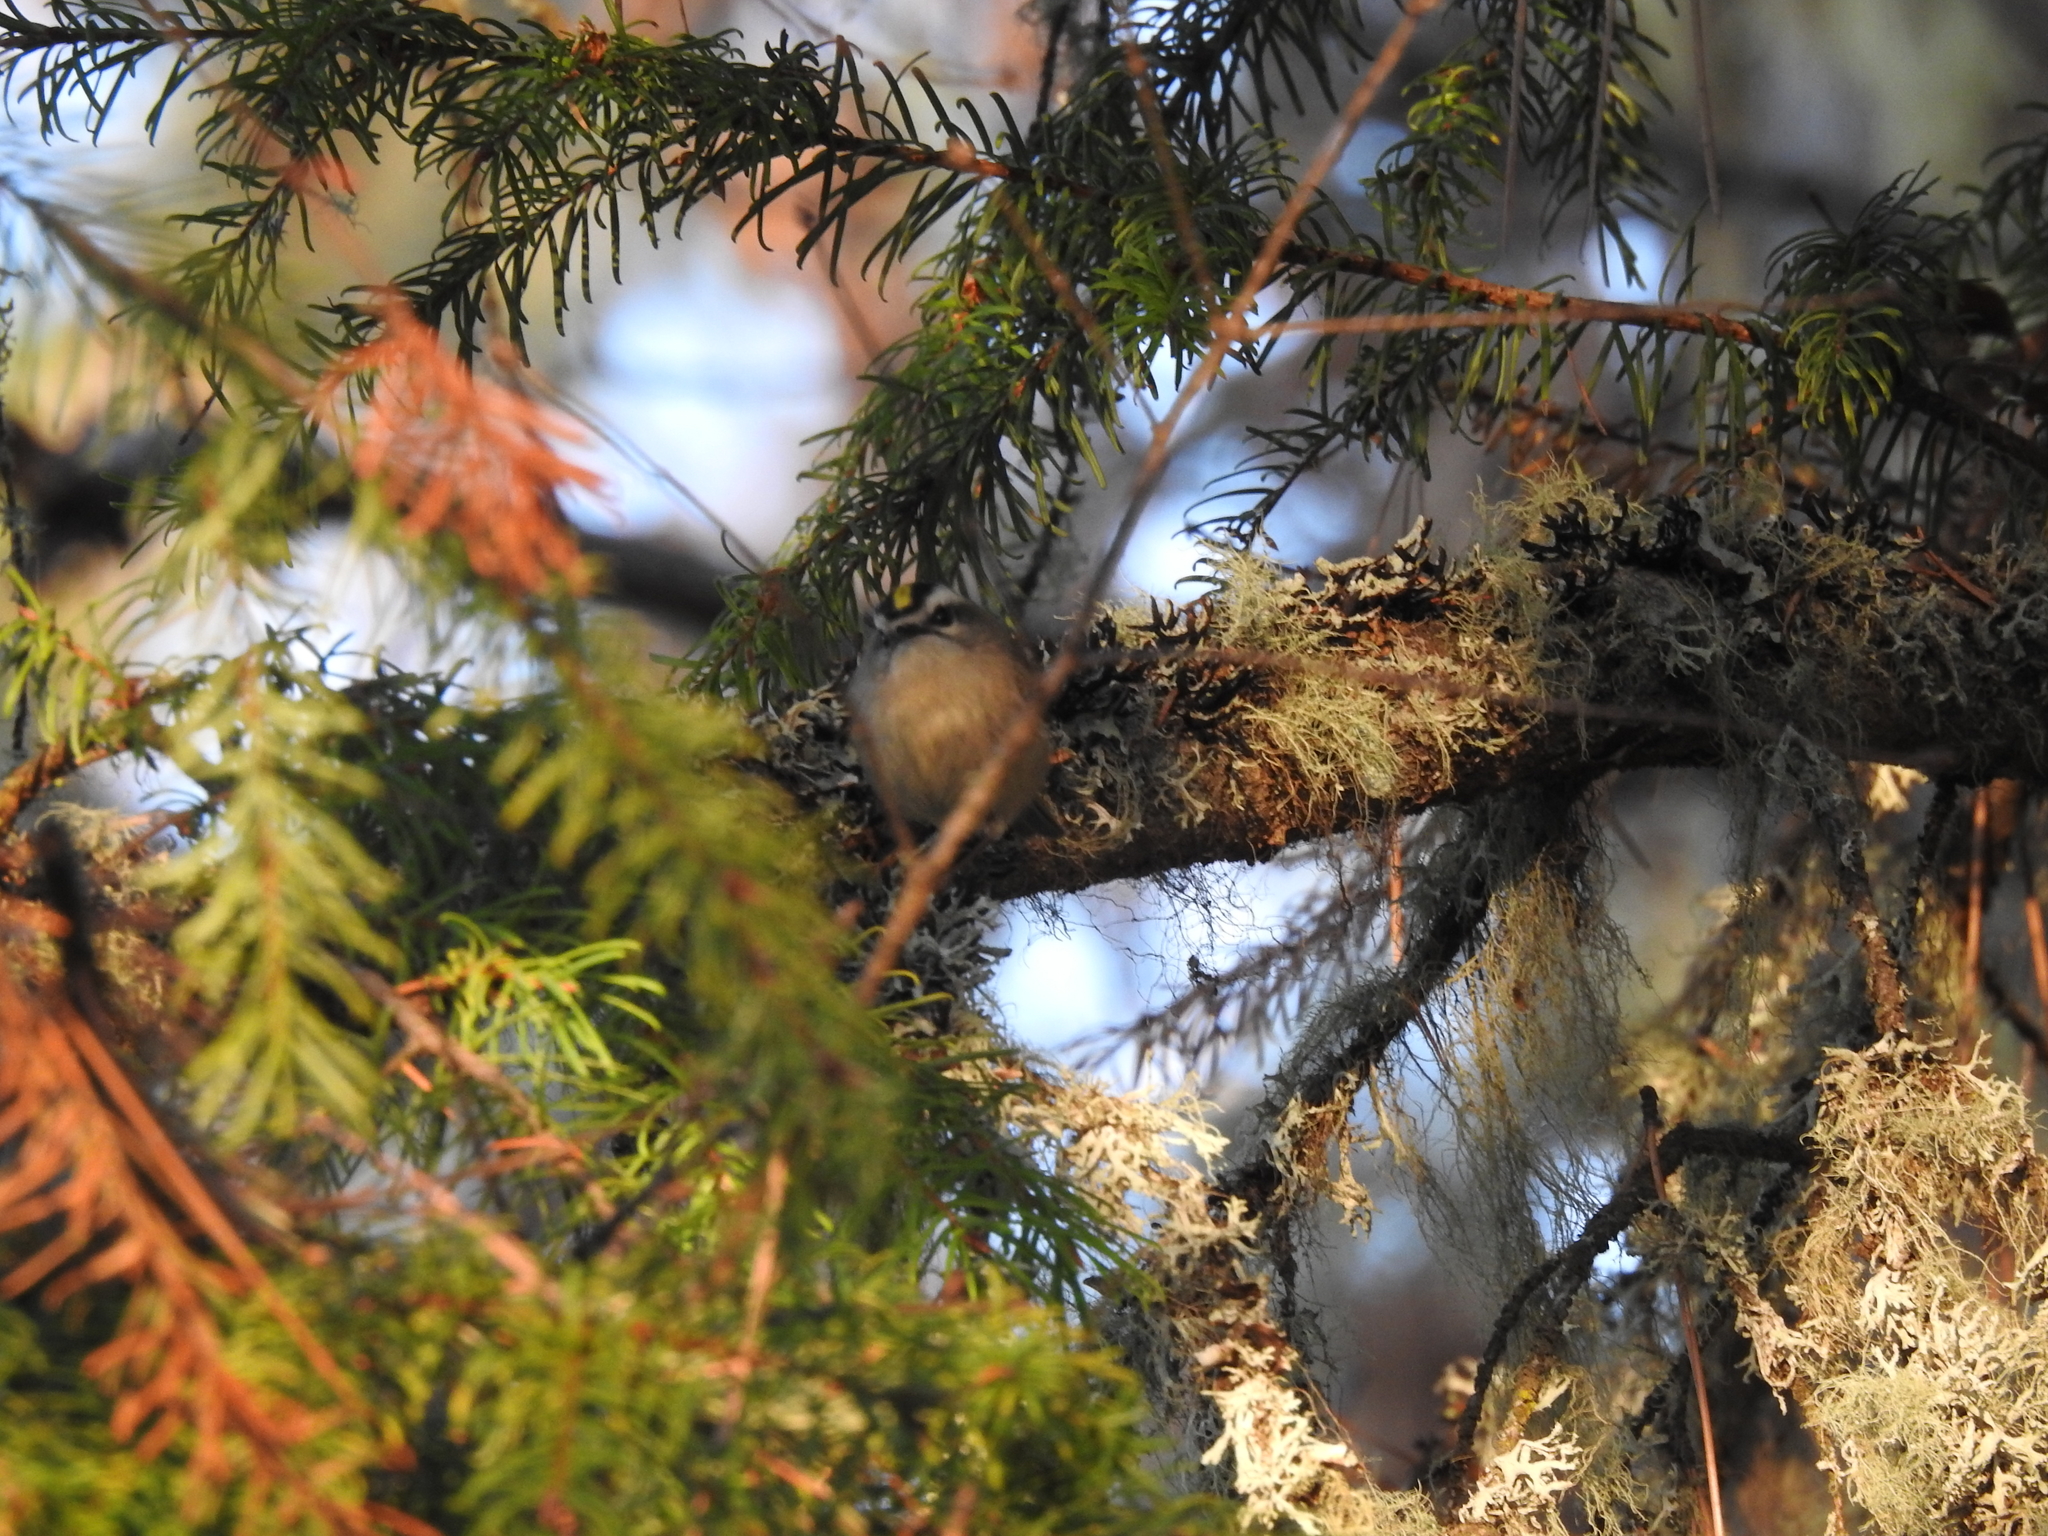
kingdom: Animalia
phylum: Chordata
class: Aves
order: Passeriformes
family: Regulidae
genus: Regulus
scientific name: Regulus satrapa
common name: Golden-crowned kinglet
